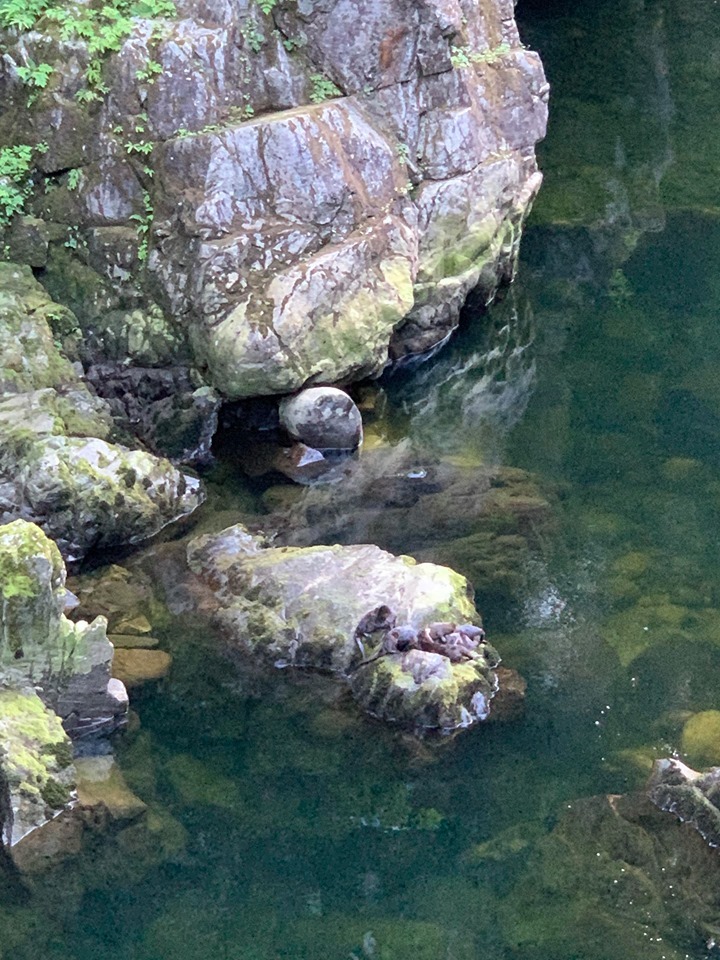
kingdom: Animalia
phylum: Chordata
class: Mammalia
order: Carnivora
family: Mustelidae
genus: Lontra
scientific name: Lontra canadensis
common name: North american river otter
